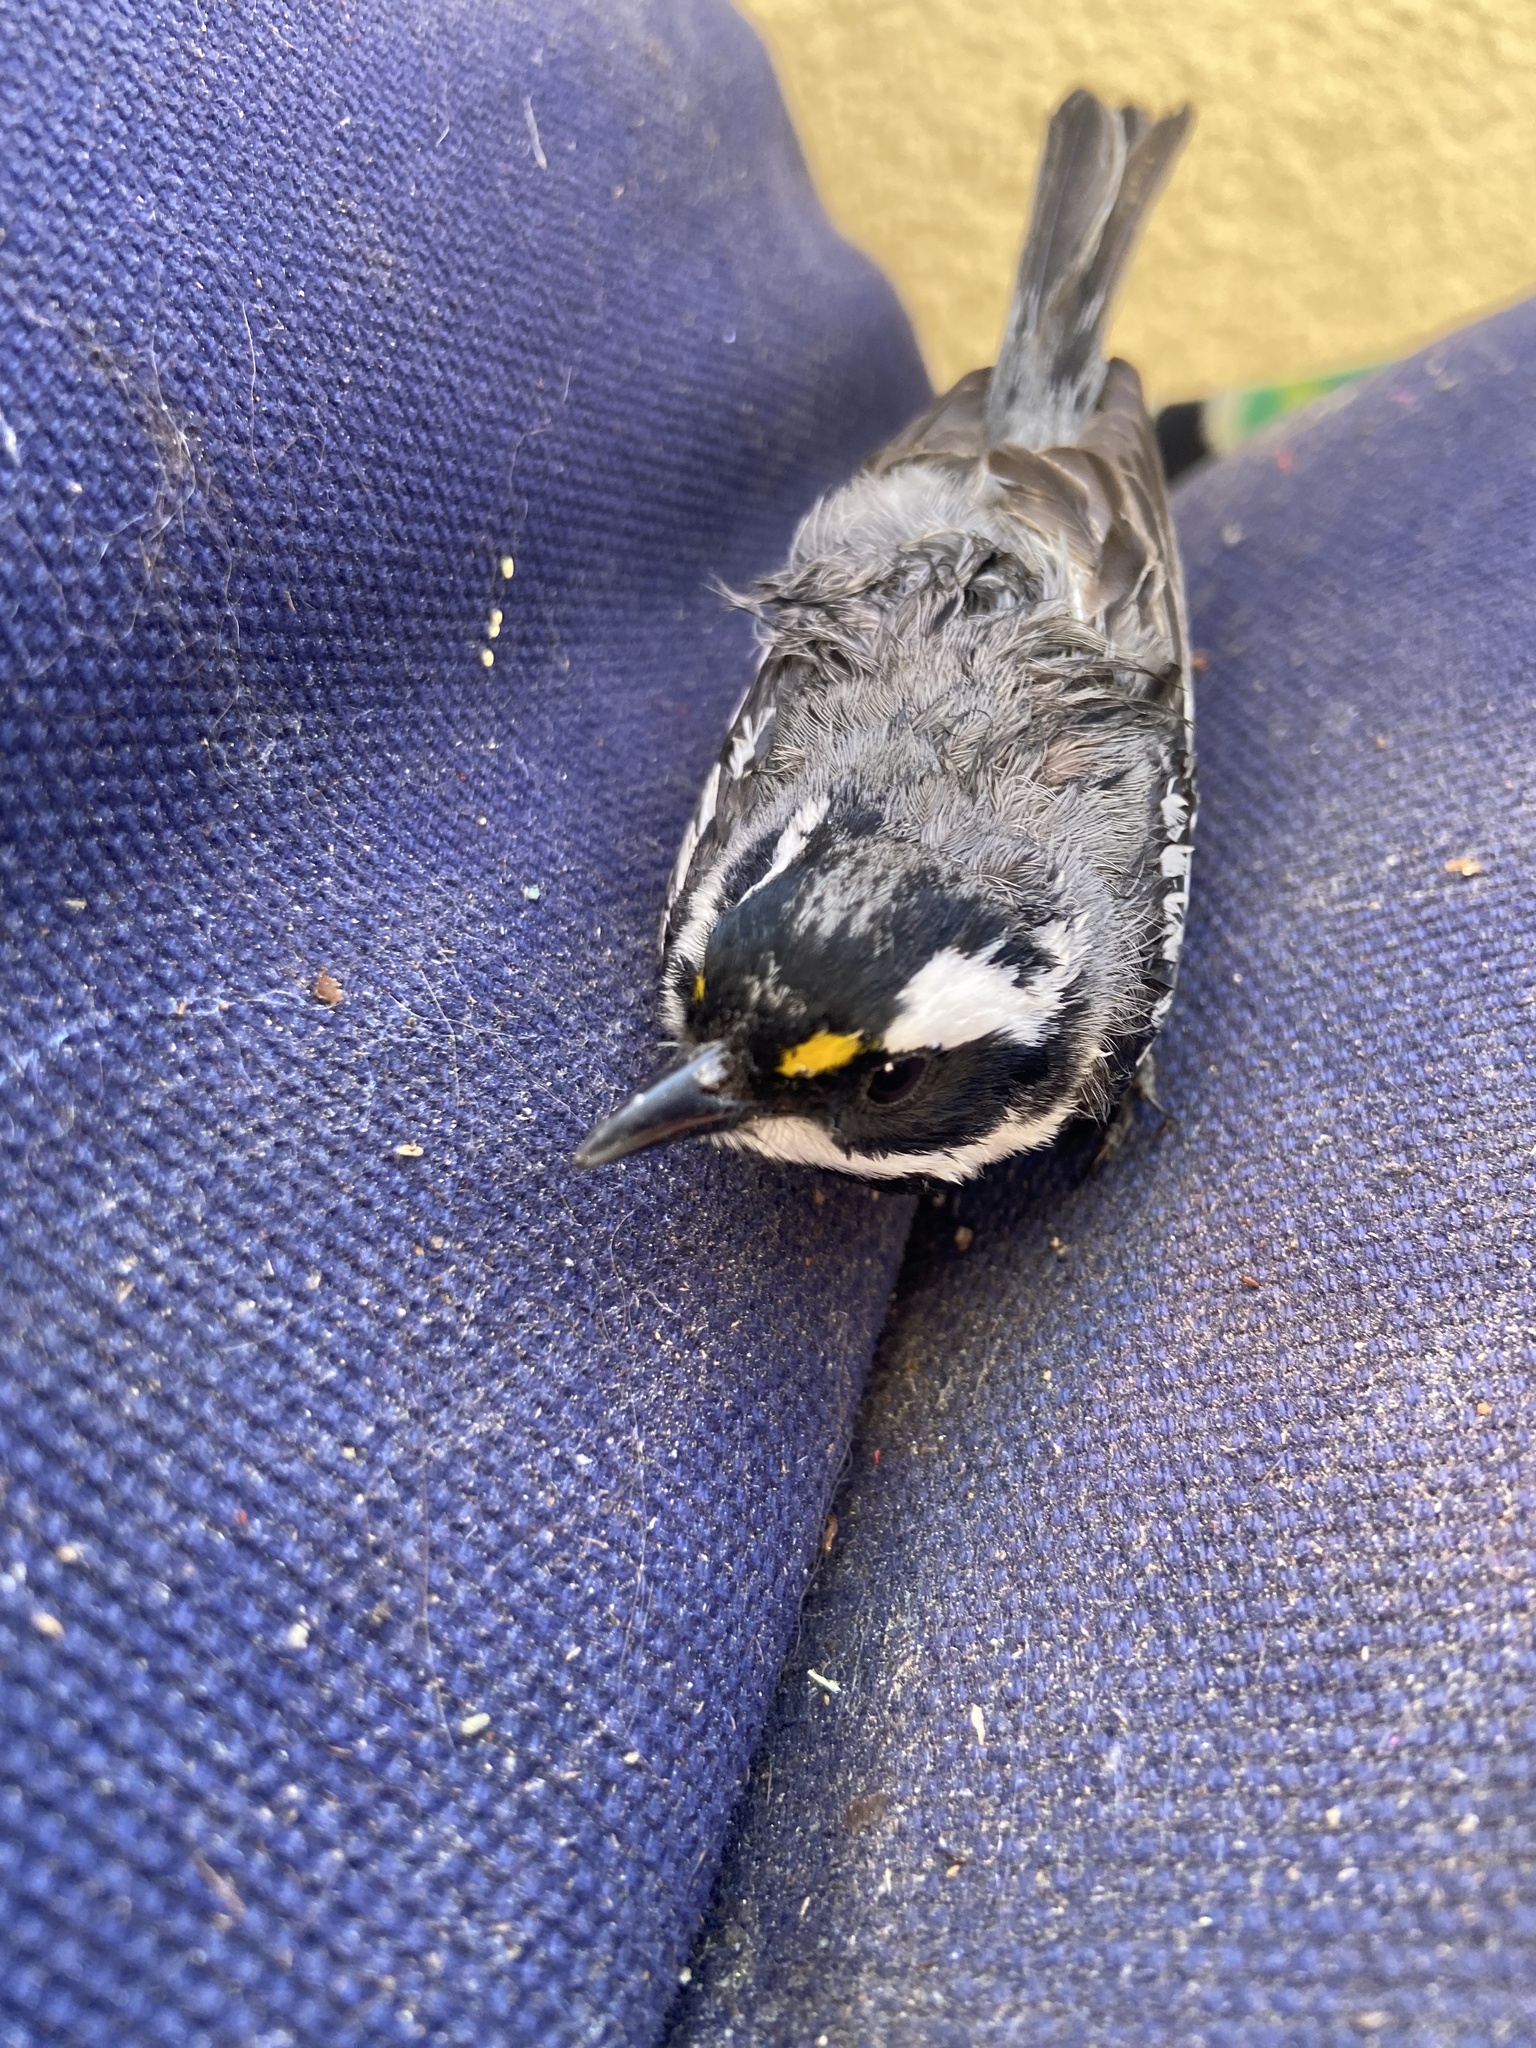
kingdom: Animalia
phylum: Chordata
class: Aves
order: Passeriformes
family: Parulidae
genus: Setophaga
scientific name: Setophaga nigrescens
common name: Black-throated gray warbler
